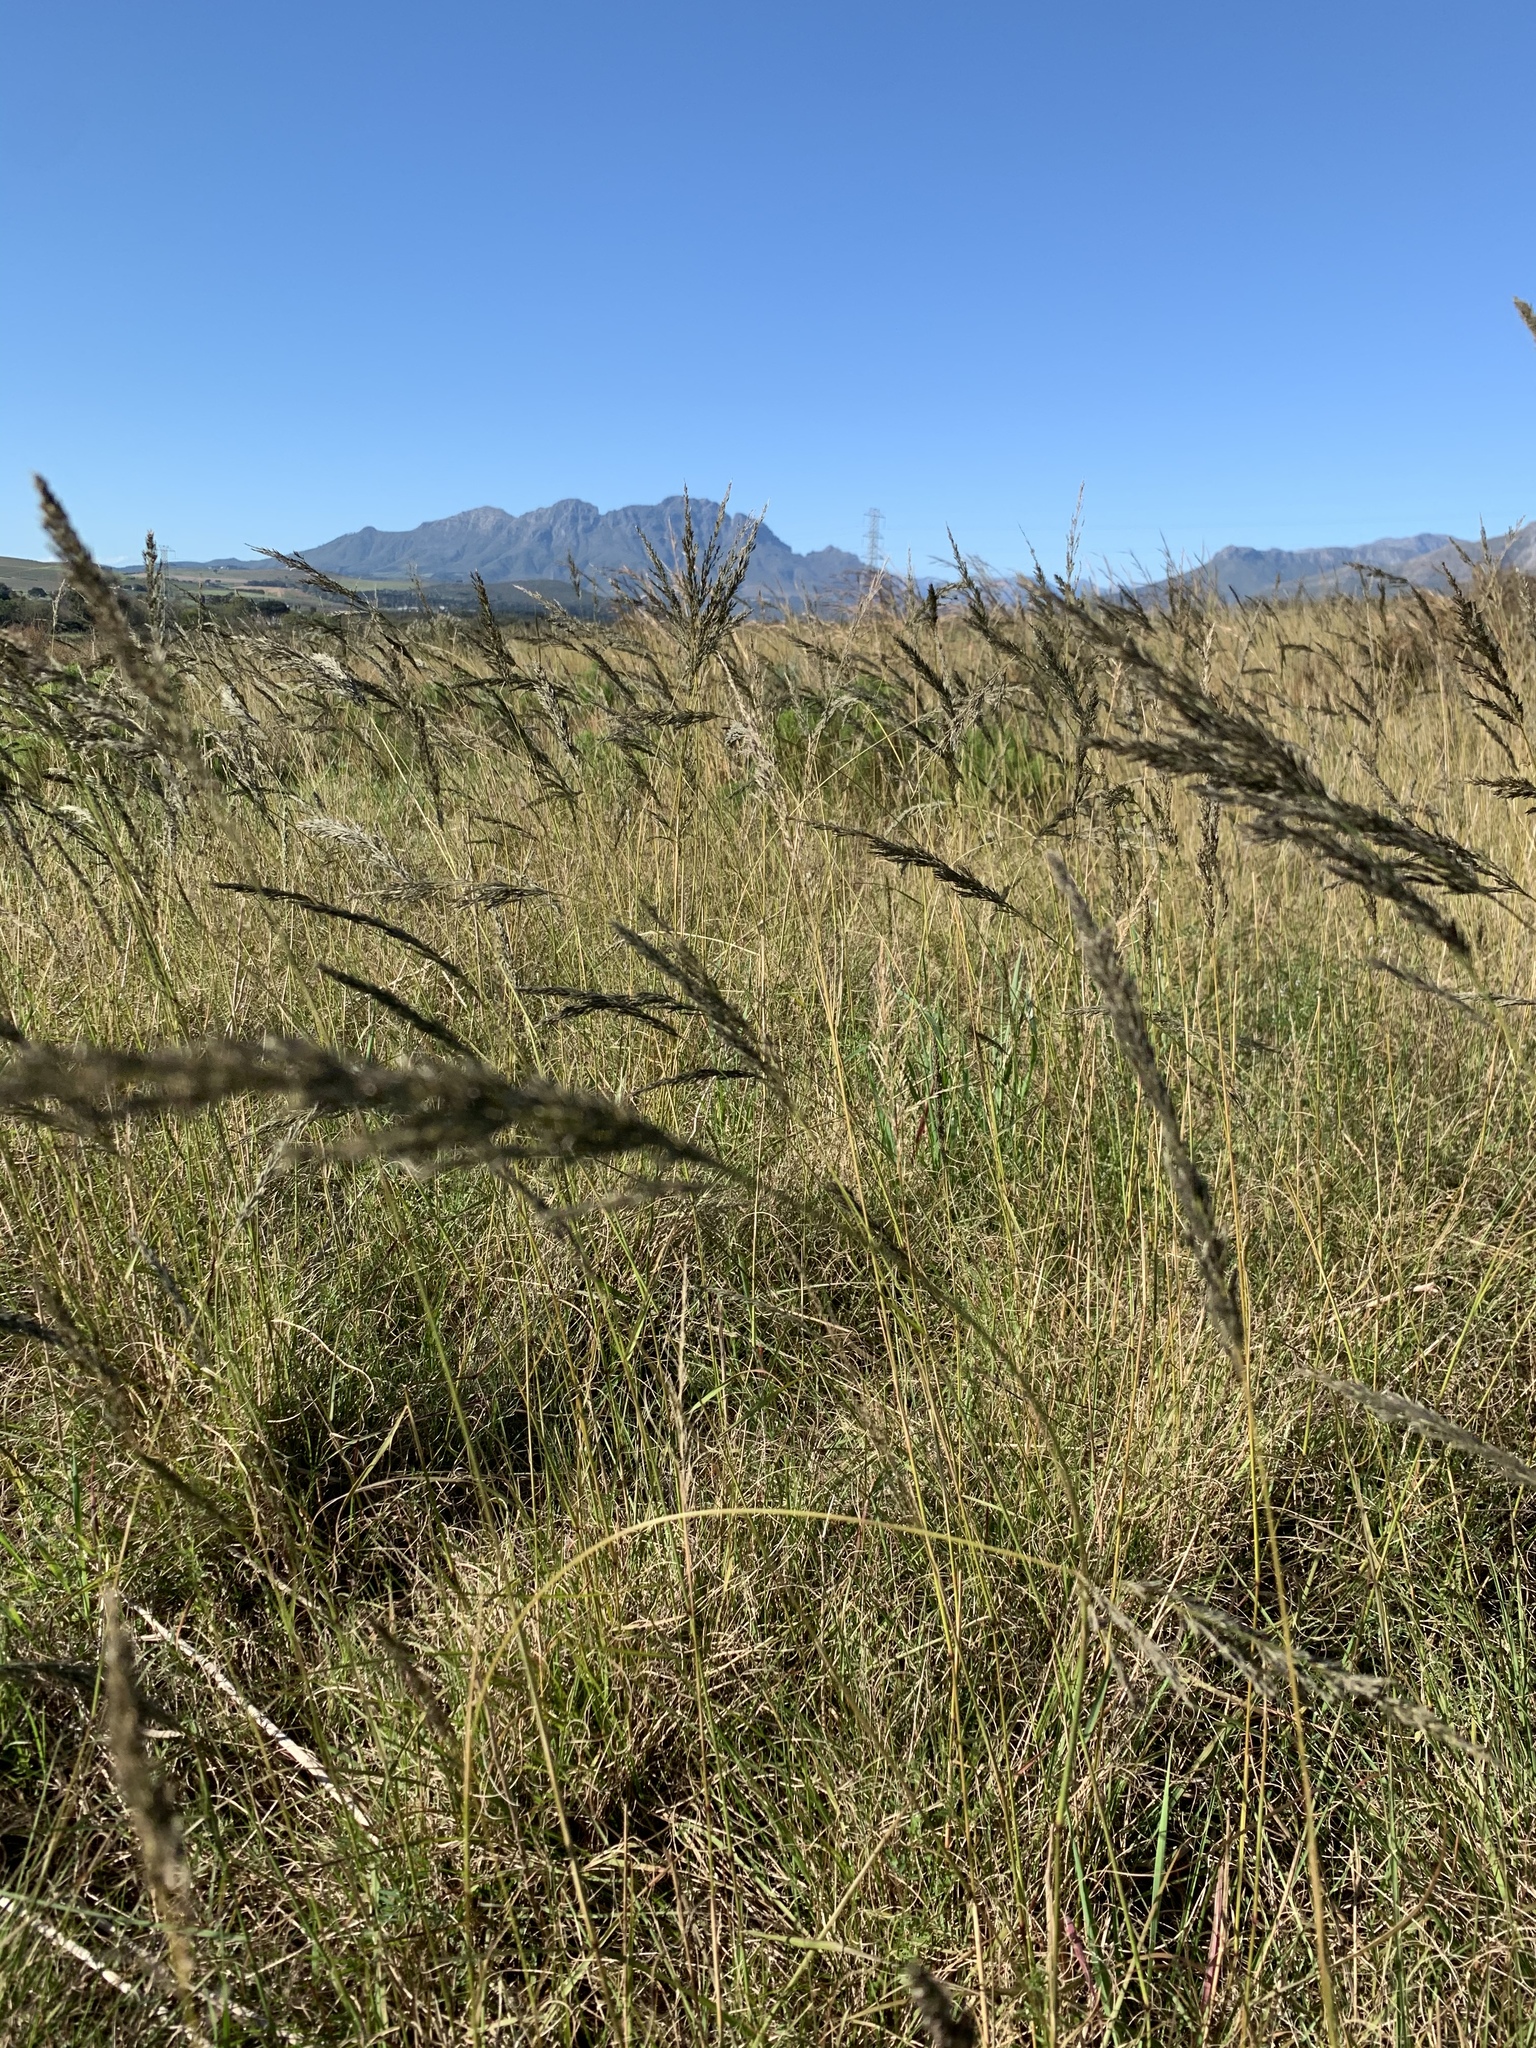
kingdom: Plantae
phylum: Tracheophyta
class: Liliopsida
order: Poales
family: Poaceae
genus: Eragrostis
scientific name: Eragrostis curvula
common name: African love-grass
